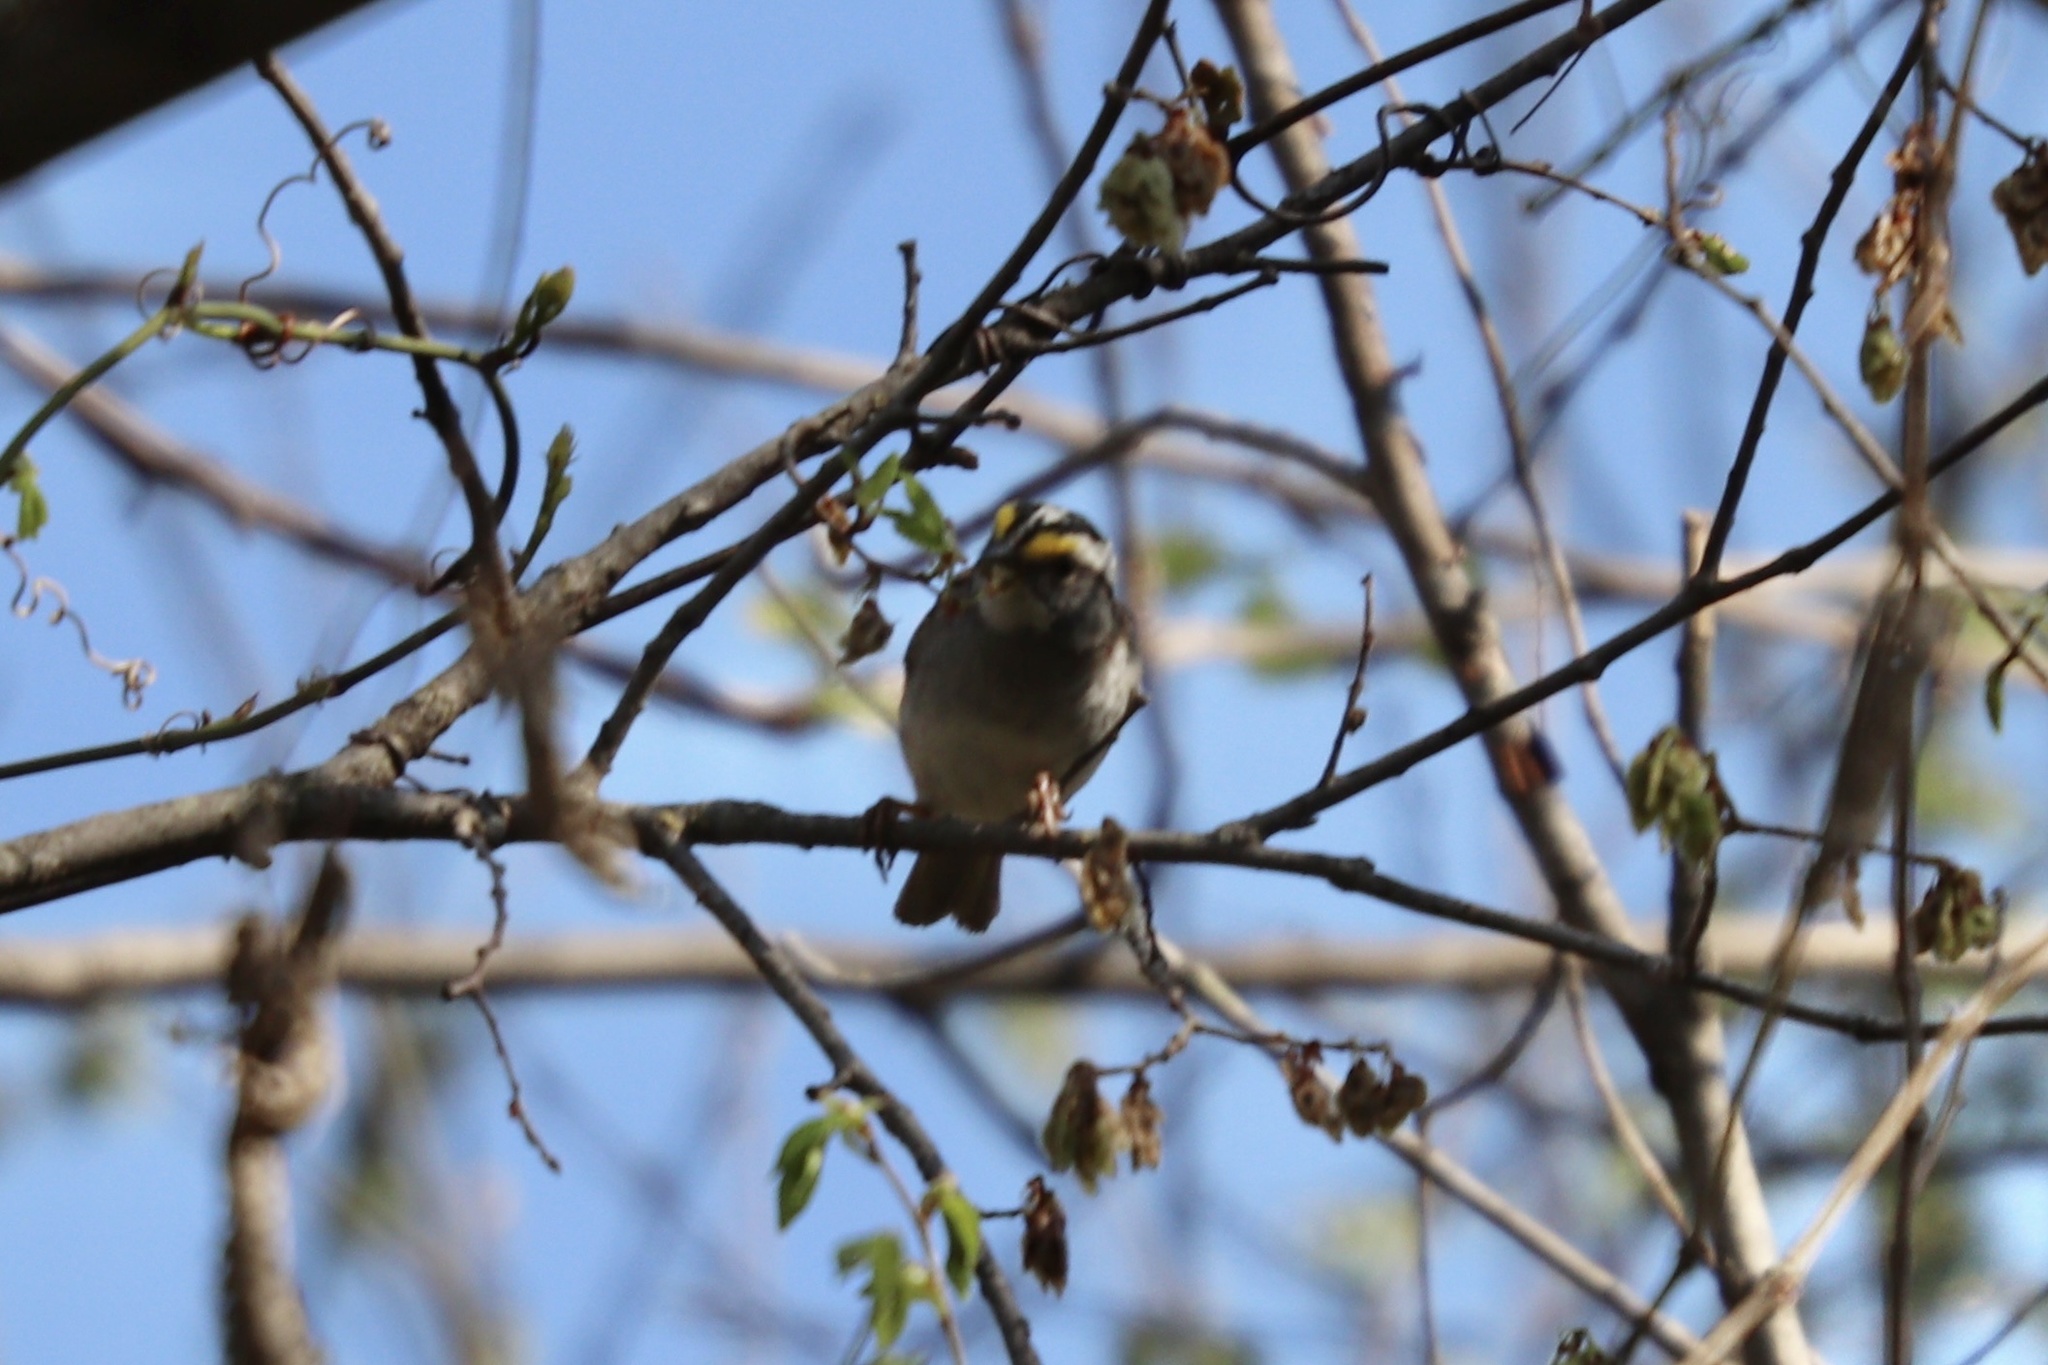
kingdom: Animalia
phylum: Chordata
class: Aves
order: Passeriformes
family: Passerellidae
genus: Zonotrichia
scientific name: Zonotrichia albicollis
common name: White-throated sparrow
